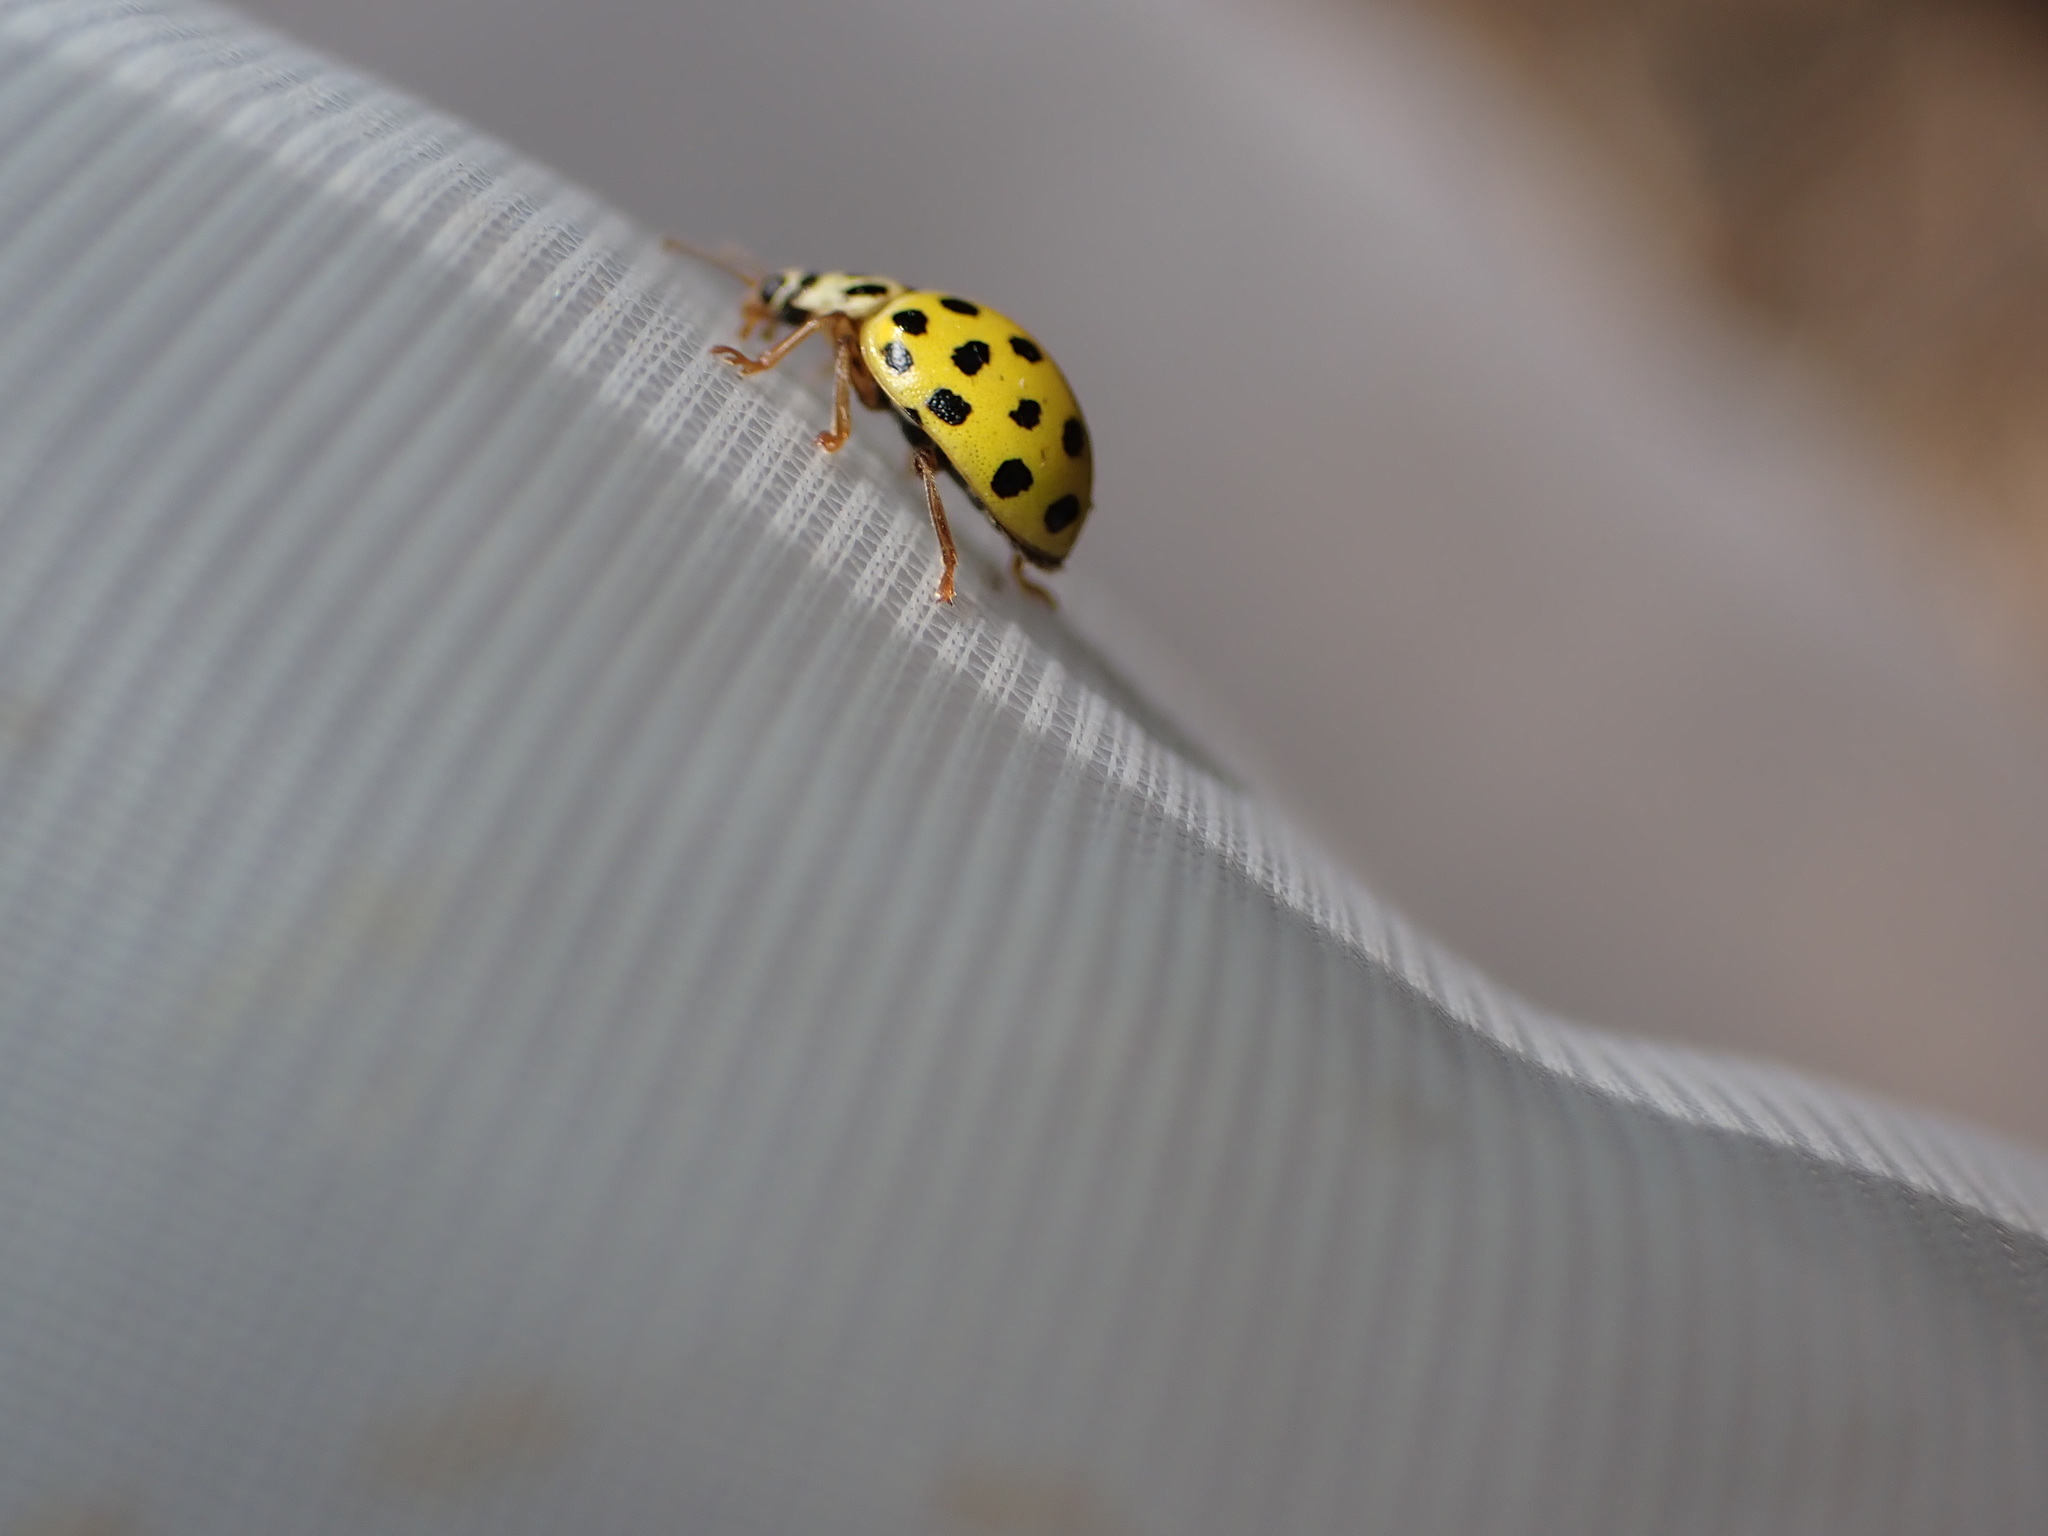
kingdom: Animalia
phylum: Arthropoda
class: Insecta
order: Coleoptera
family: Coccinellidae
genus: Psyllobora
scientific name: Psyllobora vigintiduopunctata
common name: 22-spot ladybird
